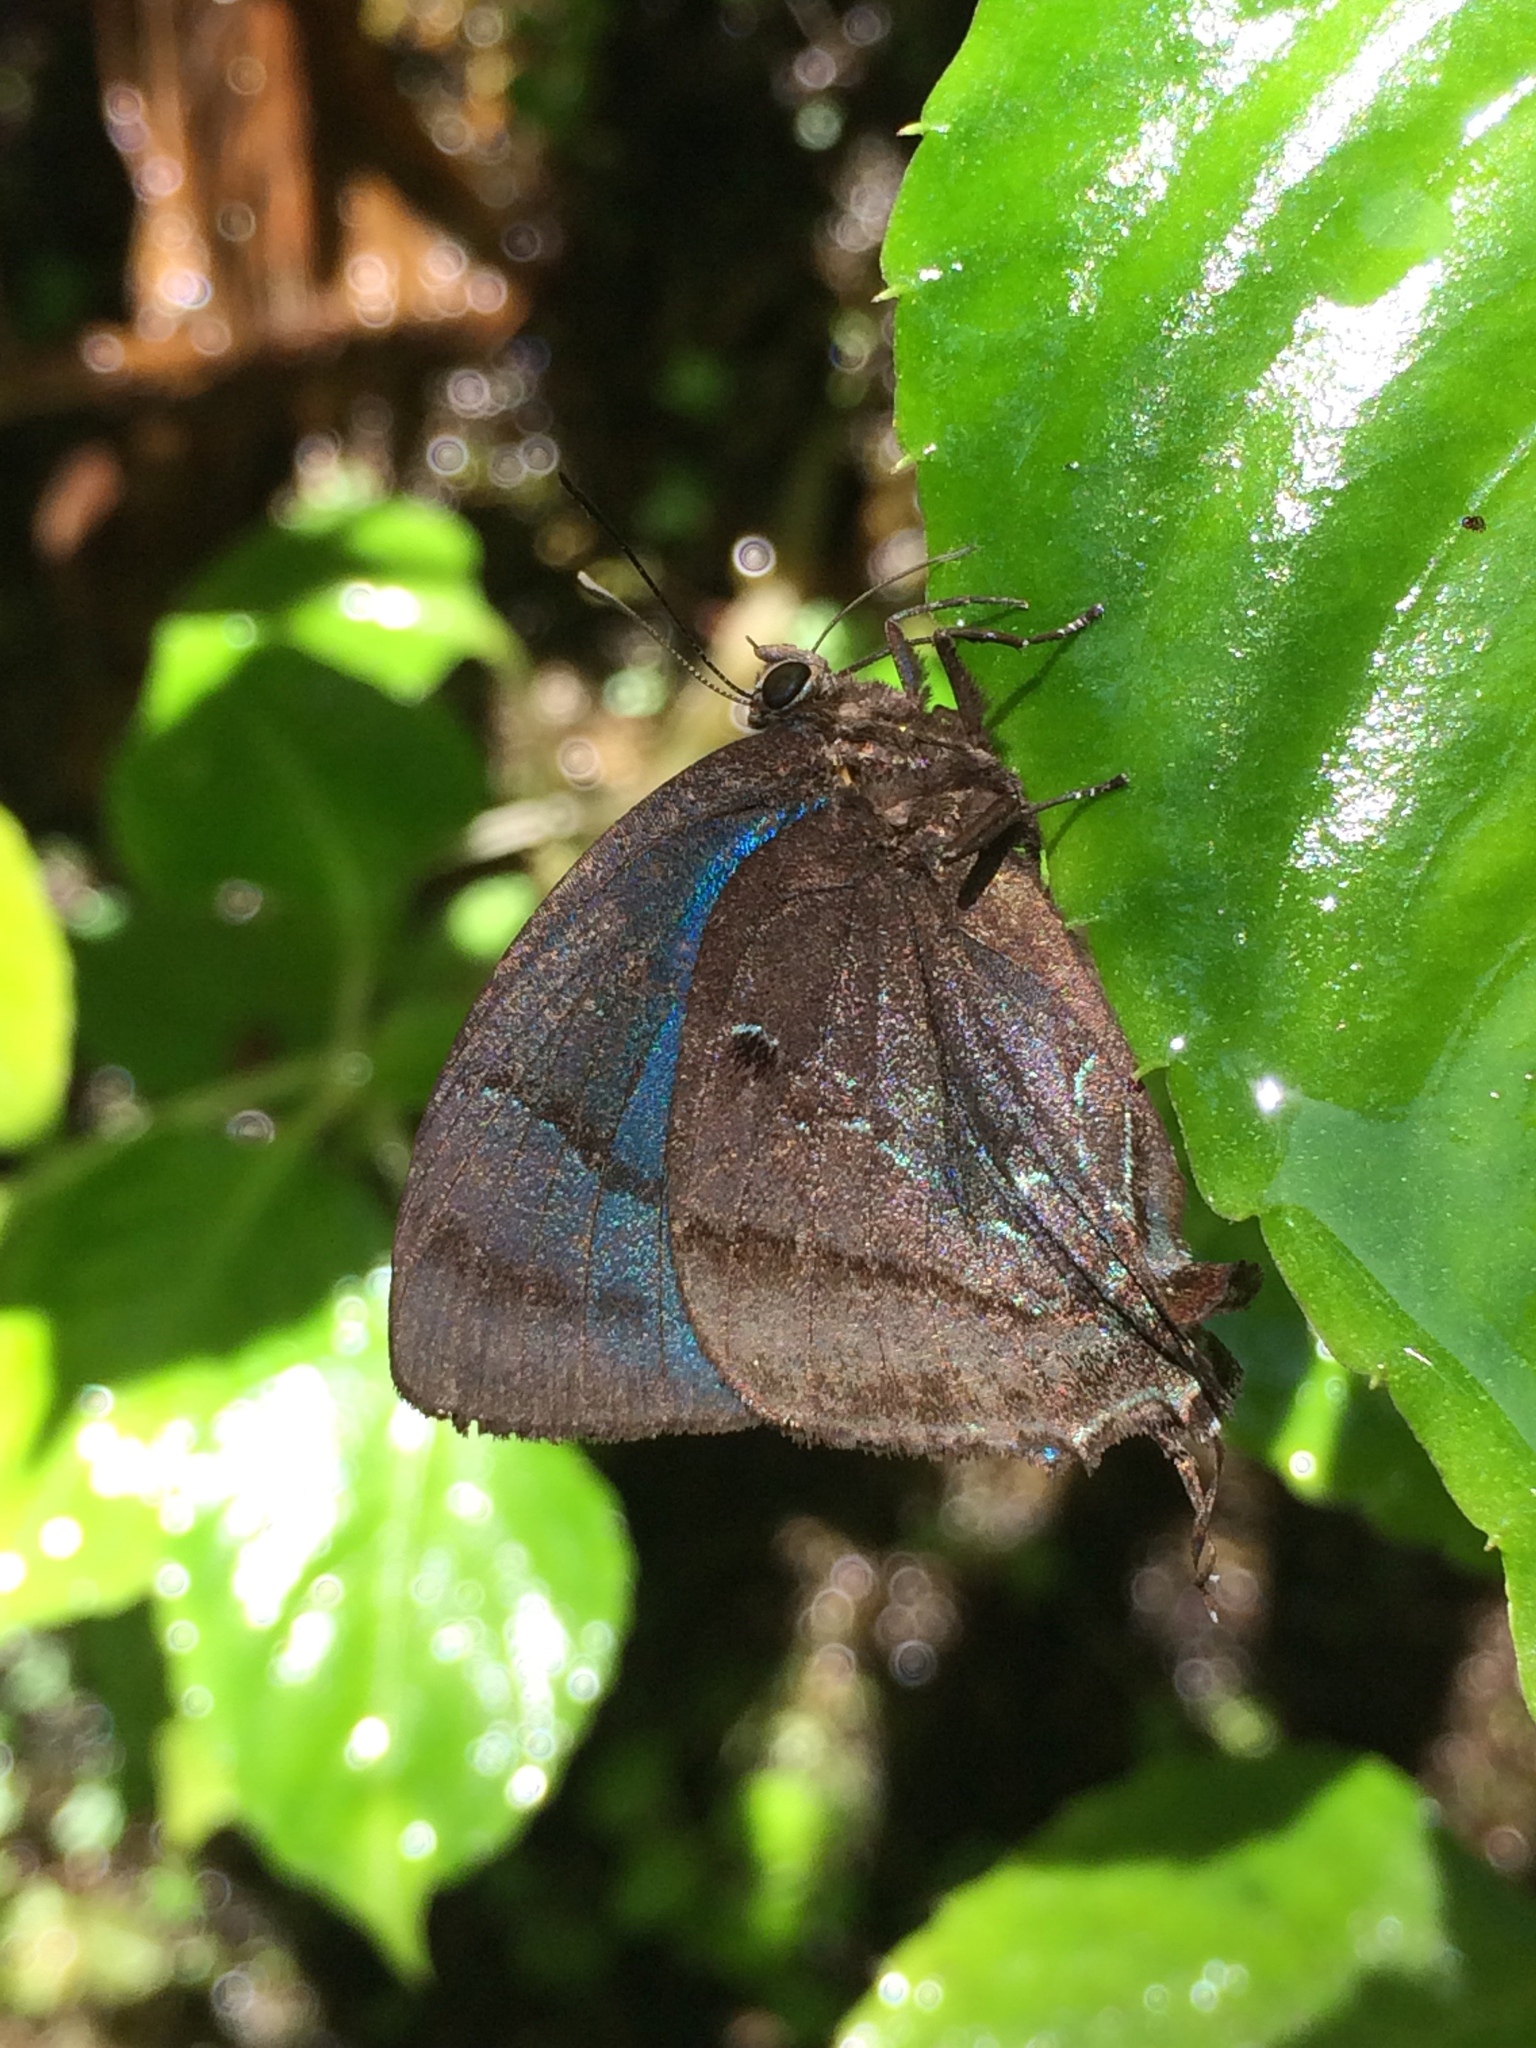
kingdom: Animalia
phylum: Arthropoda
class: Insecta
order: Lepidoptera
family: Lycaenidae
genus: Denivia
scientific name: Denivia hemon
